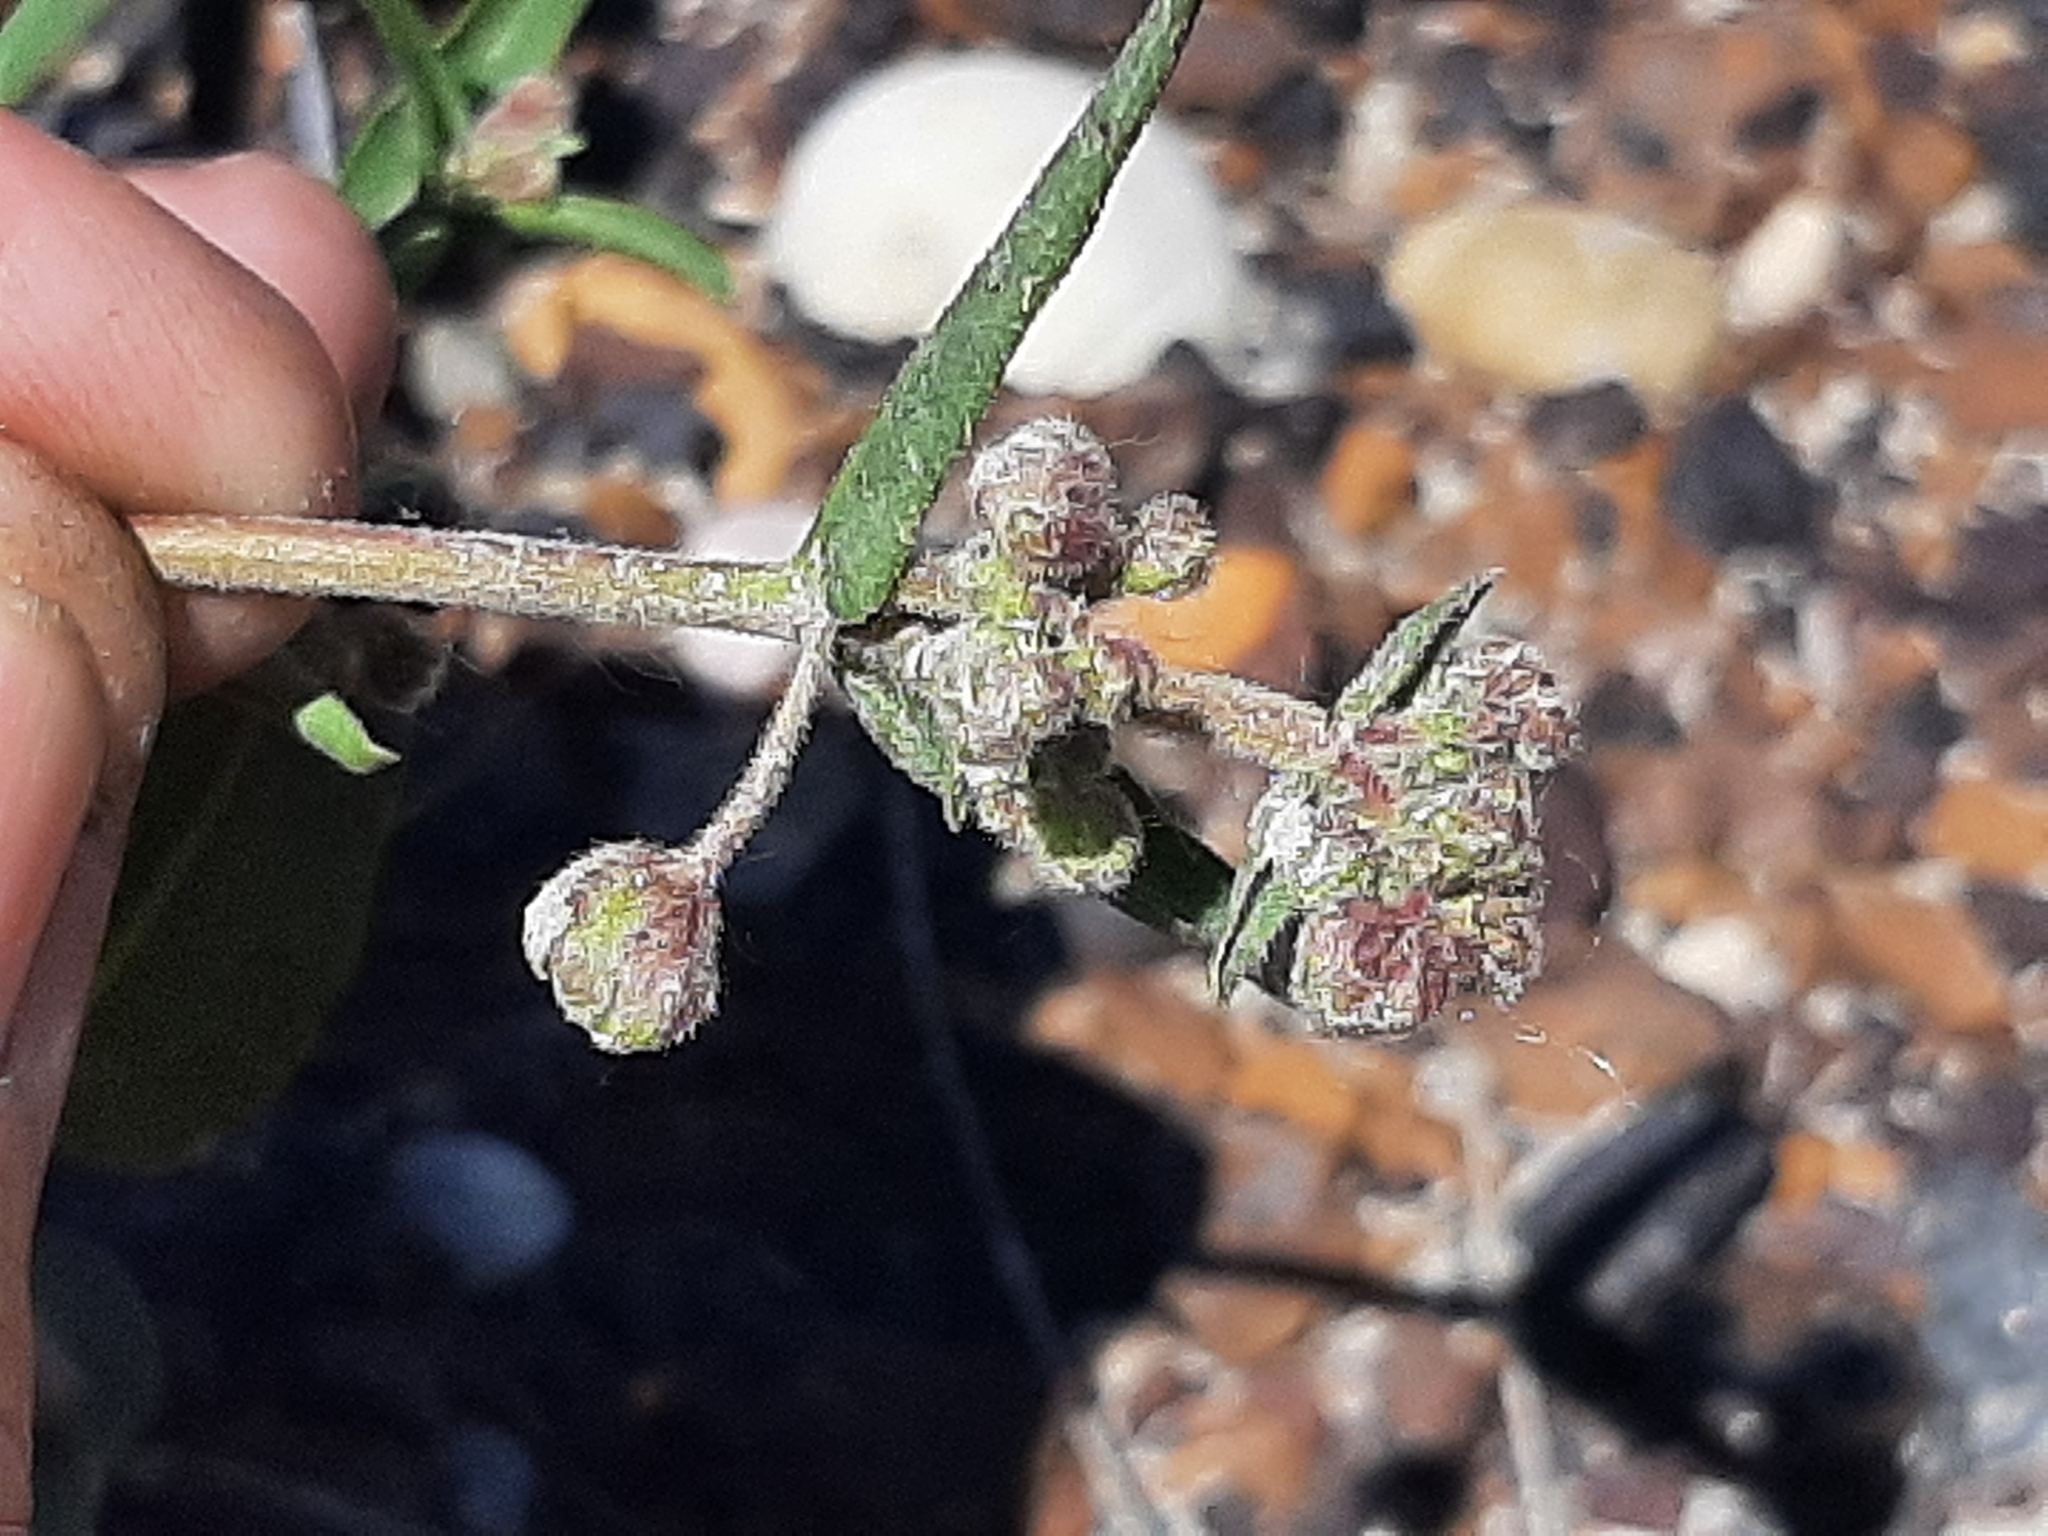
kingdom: Plantae
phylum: Tracheophyta
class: Magnoliopsida
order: Caryophyllales
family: Nyctaginaceae
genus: Mirabilis
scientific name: Mirabilis albida
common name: Hairy four-o'clock
